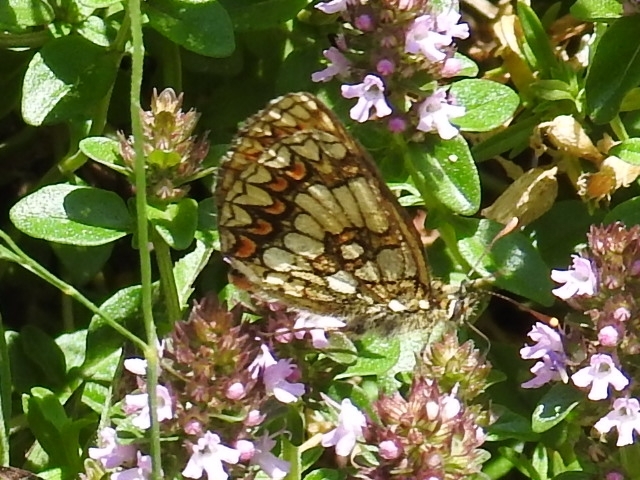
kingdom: Animalia
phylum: Arthropoda
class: Insecta
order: Lepidoptera
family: Nymphalidae
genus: Mellicta
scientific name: Mellicta athalia
